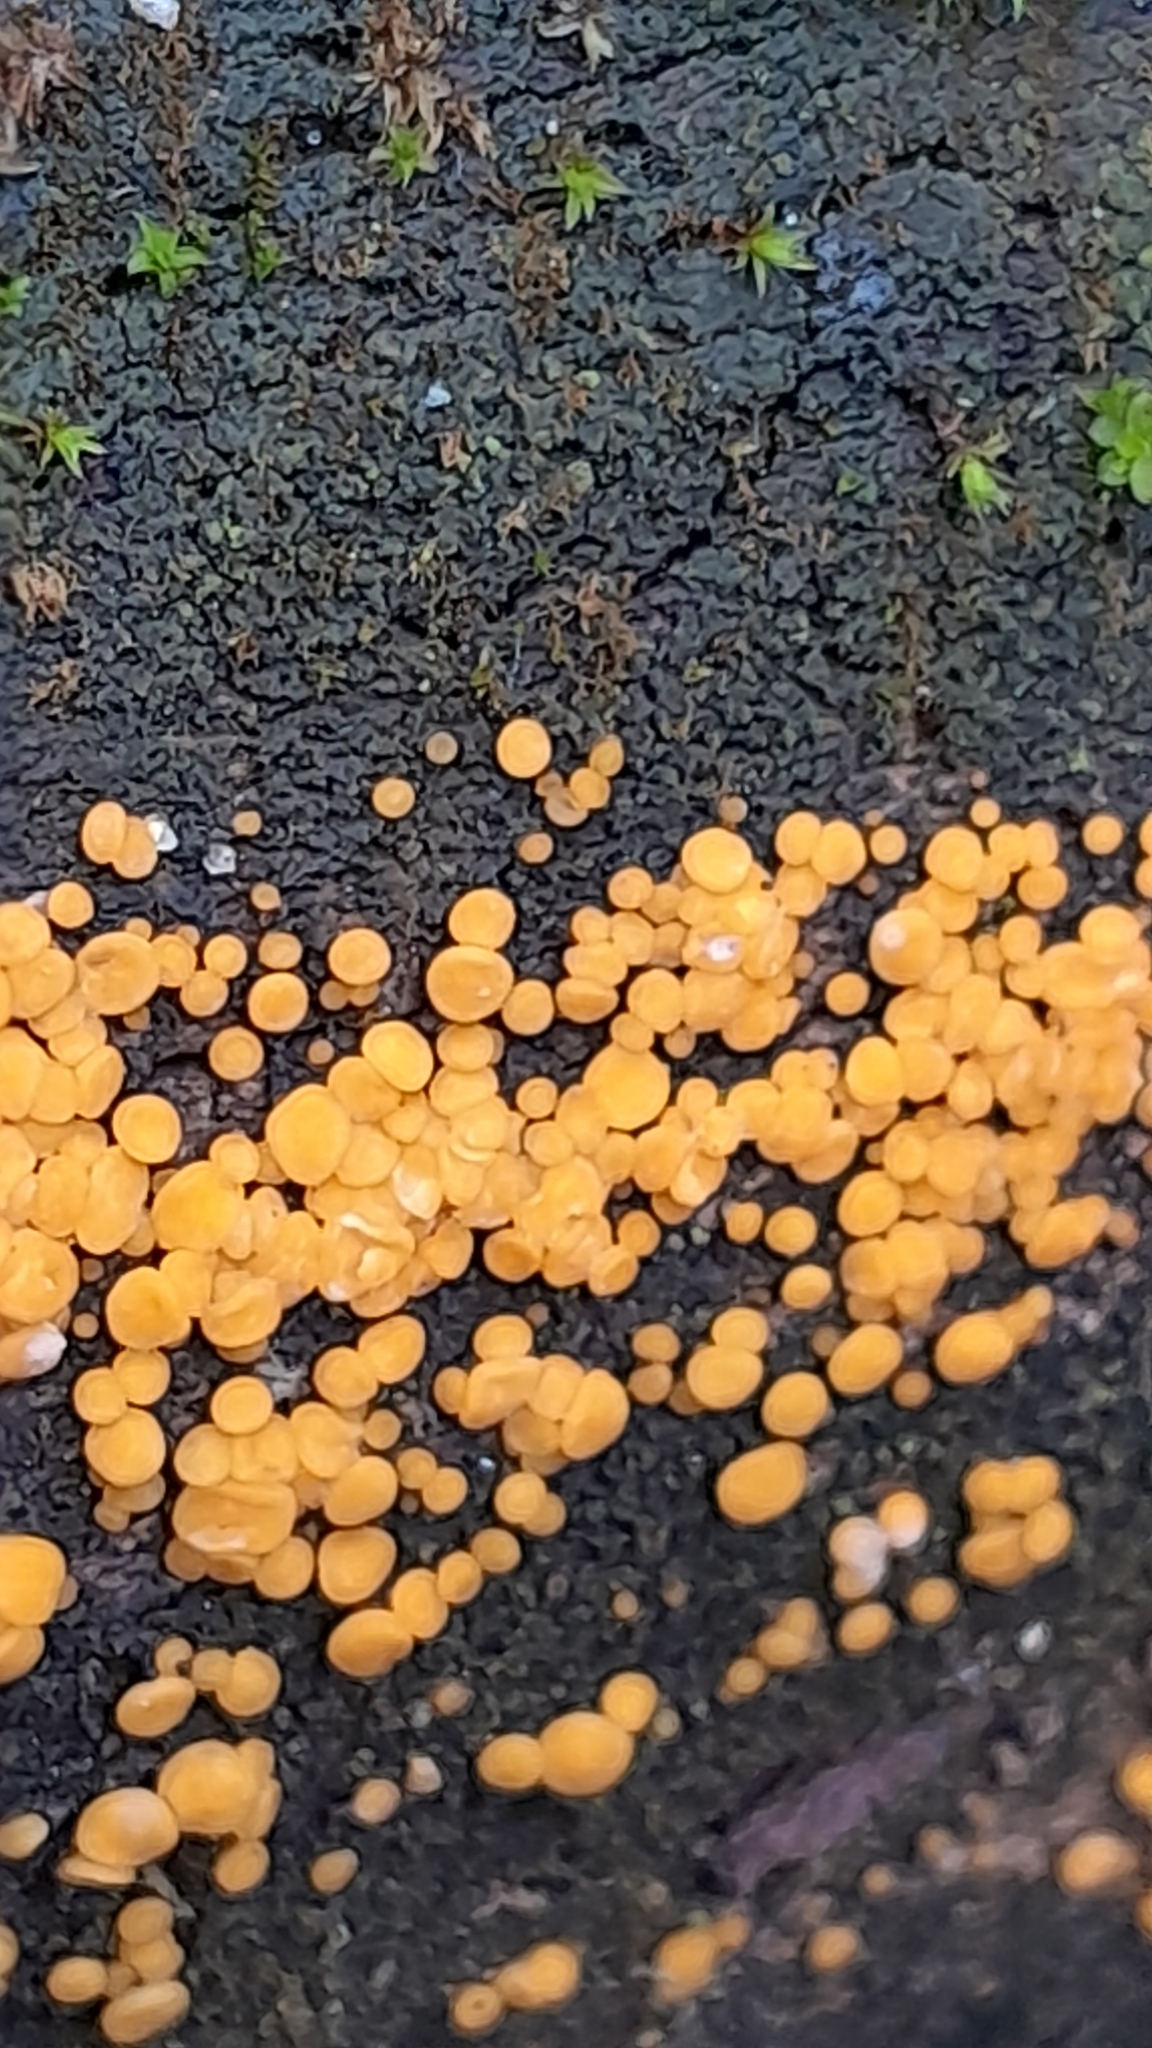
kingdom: Fungi
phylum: Ascomycota
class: Leotiomycetes
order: Helotiales
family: Pezizellaceae
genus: Calycina
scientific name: Calycina citrina
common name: Yellow fairy cups
